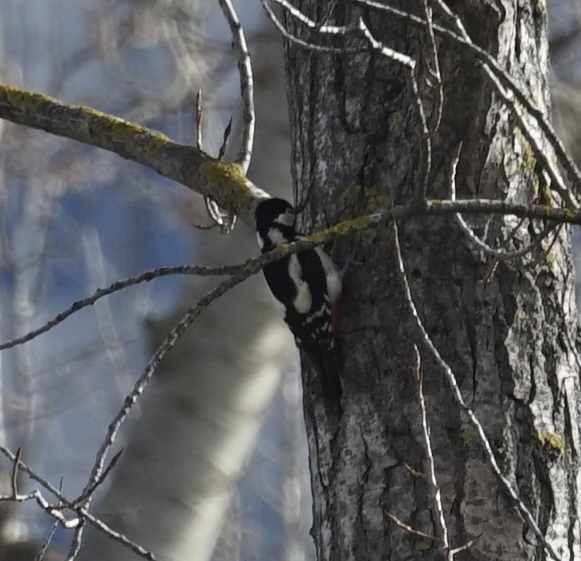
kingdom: Animalia
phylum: Chordata
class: Aves
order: Piciformes
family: Picidae
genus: Dendrocopos
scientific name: Dendrocopos major
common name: Great spotted woodpecker
